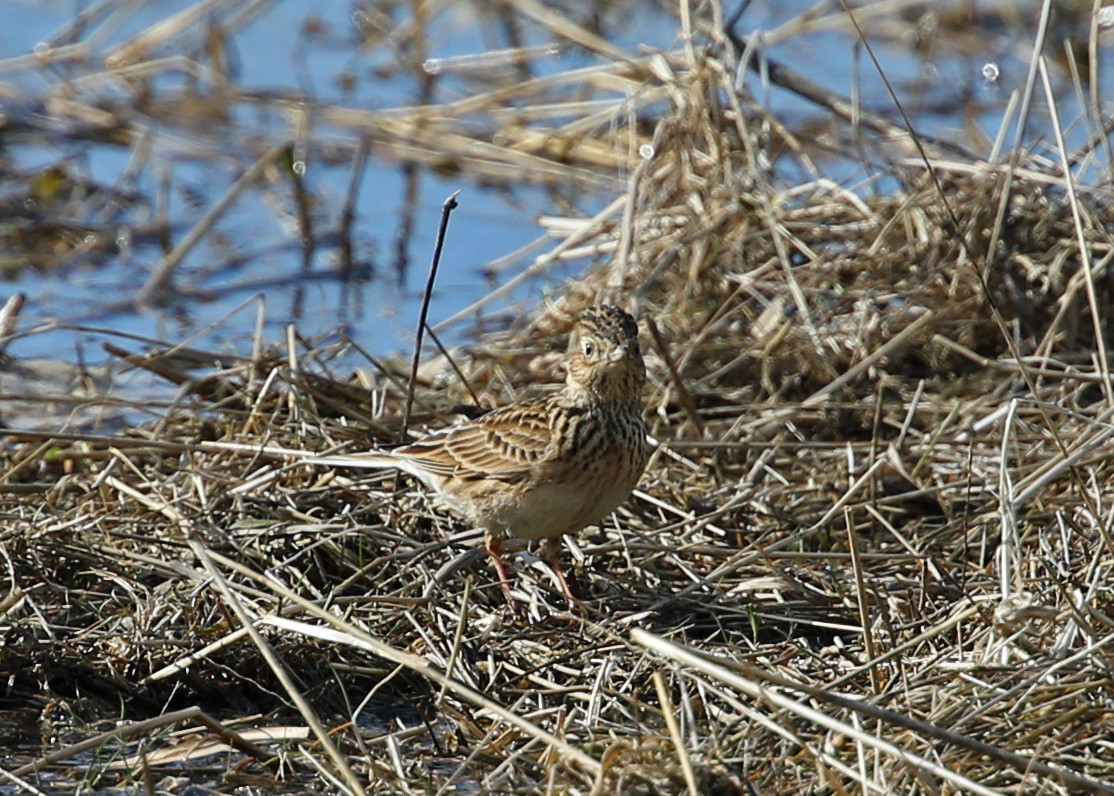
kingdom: Animalia
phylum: Chordata
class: Aves
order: Passeriformes
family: Alaudidae
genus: Alauda
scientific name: Alauda arvensis
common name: Eurasian skylark
